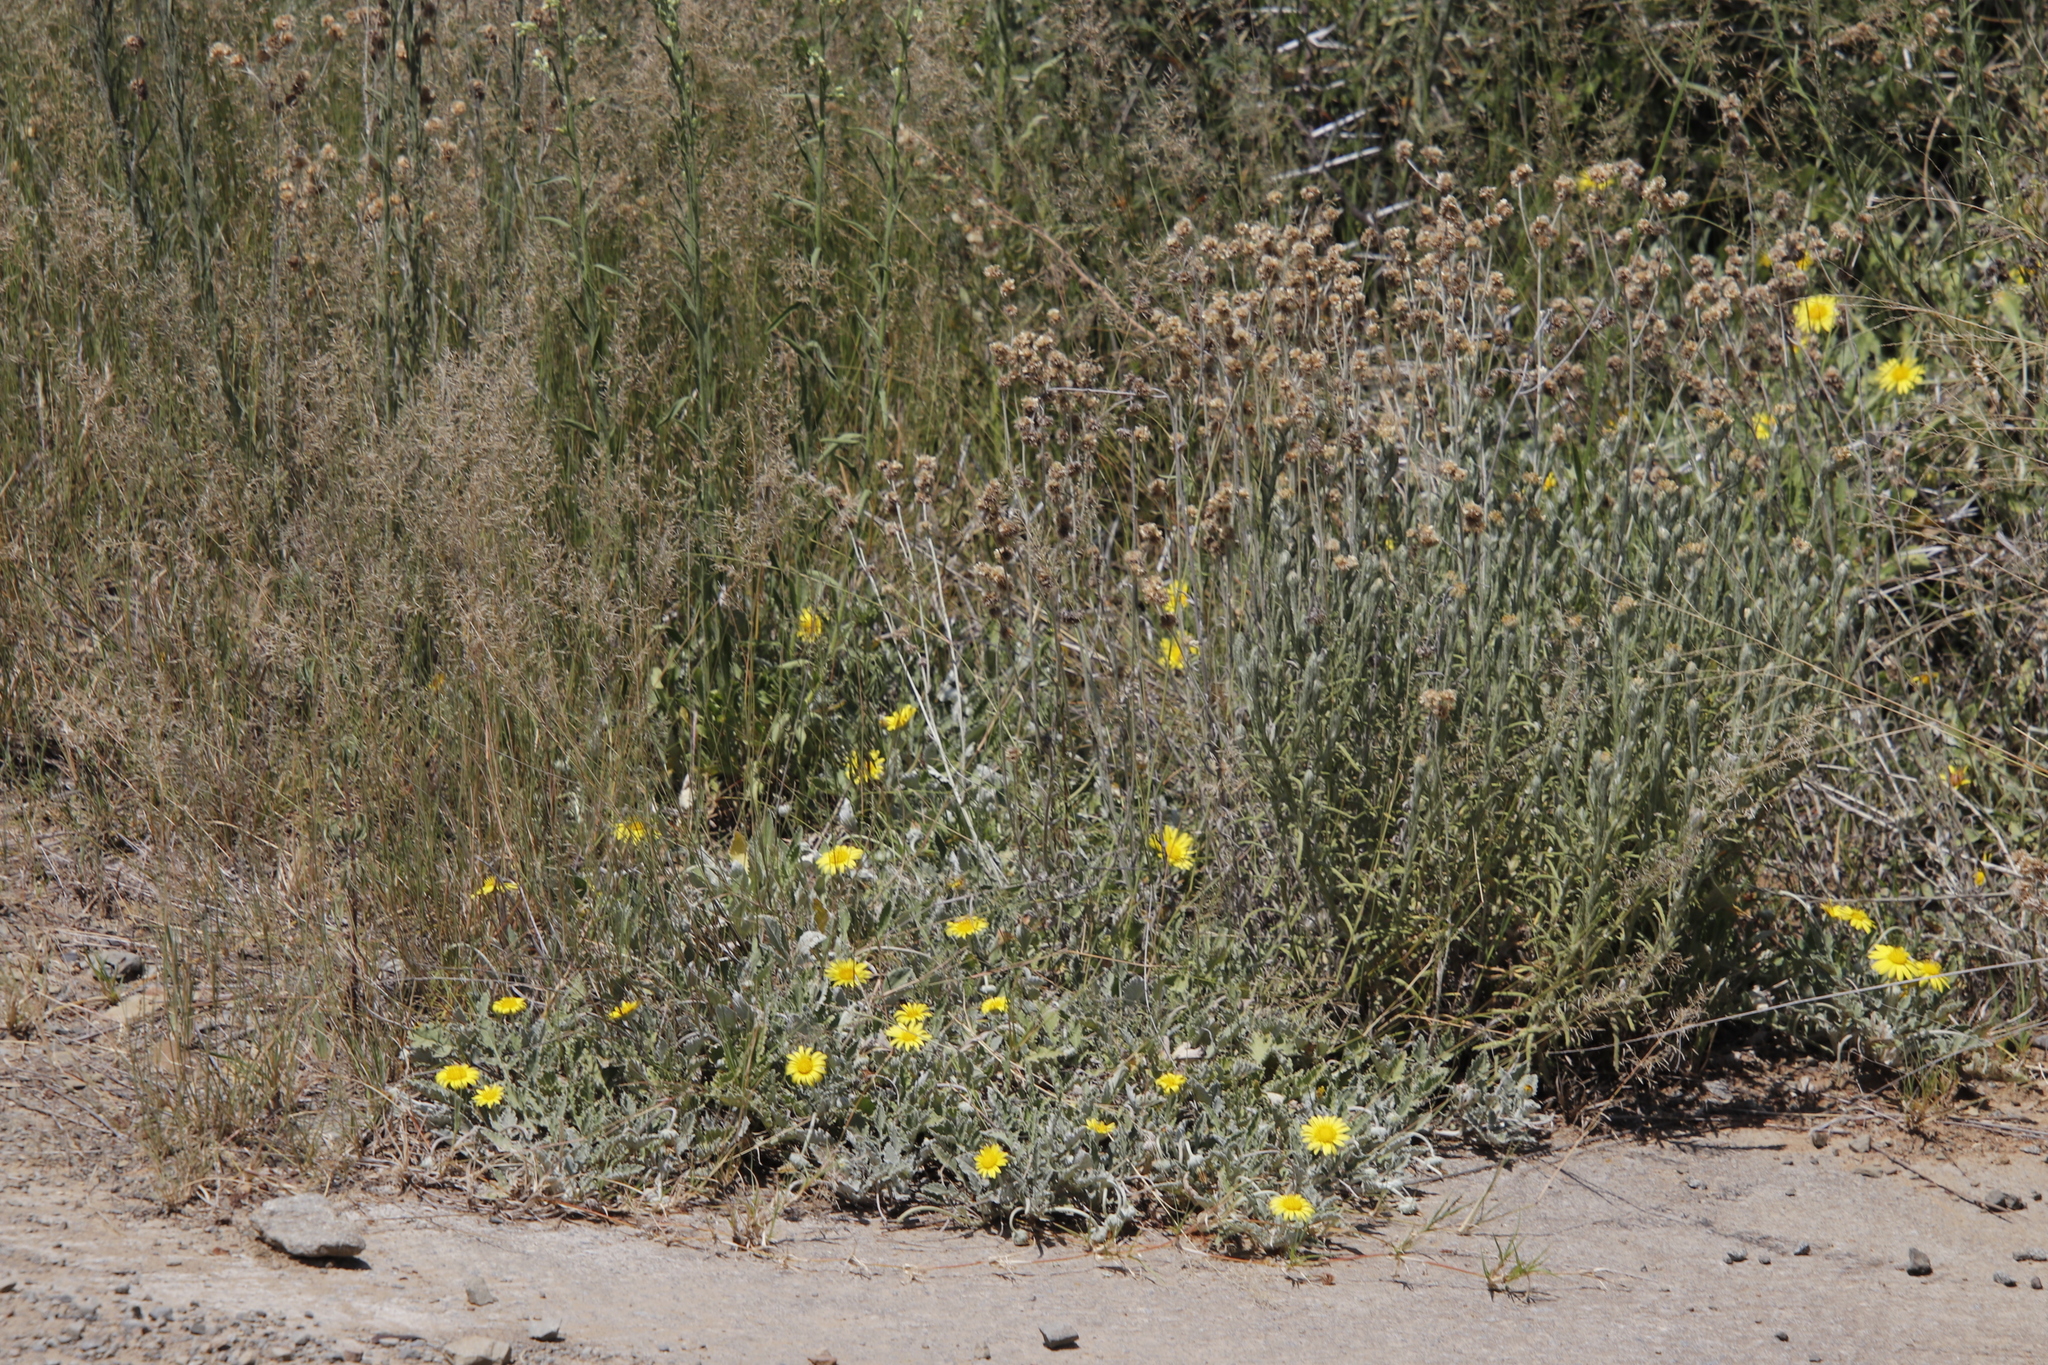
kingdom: Plantae
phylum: Tracheophyta
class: Magnoliopsida
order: Asterales
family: Asteraceae
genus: Arctotis
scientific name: Arctotis arctotoides
